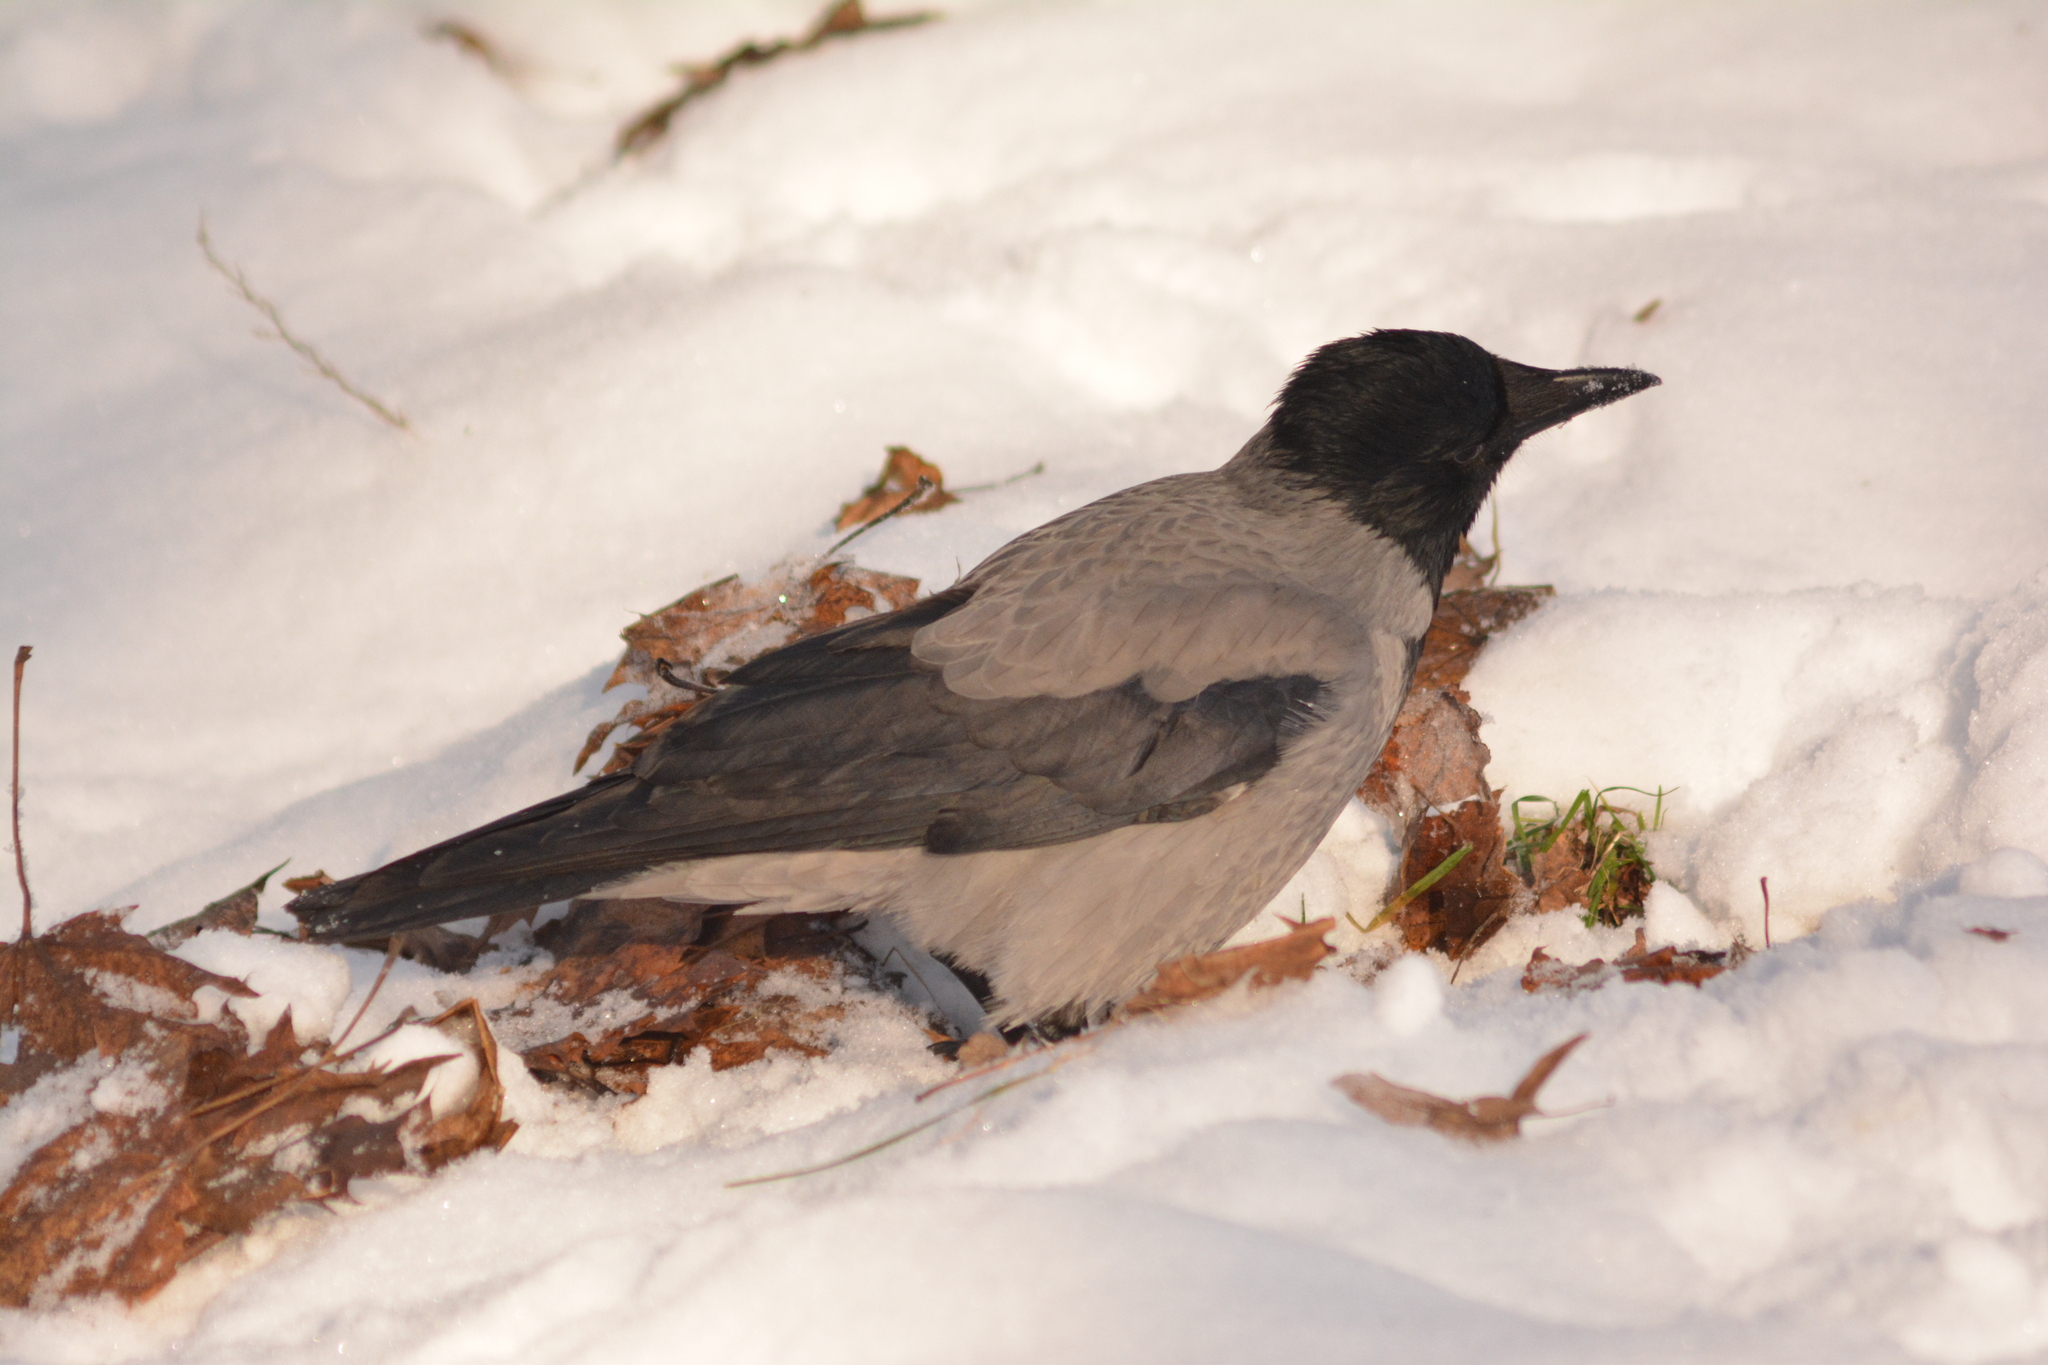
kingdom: Animalia
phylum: Chordata
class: Aves
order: Passeriformes
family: Corvidae
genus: Corvus
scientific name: Corvus cornix
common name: Hooded crow
